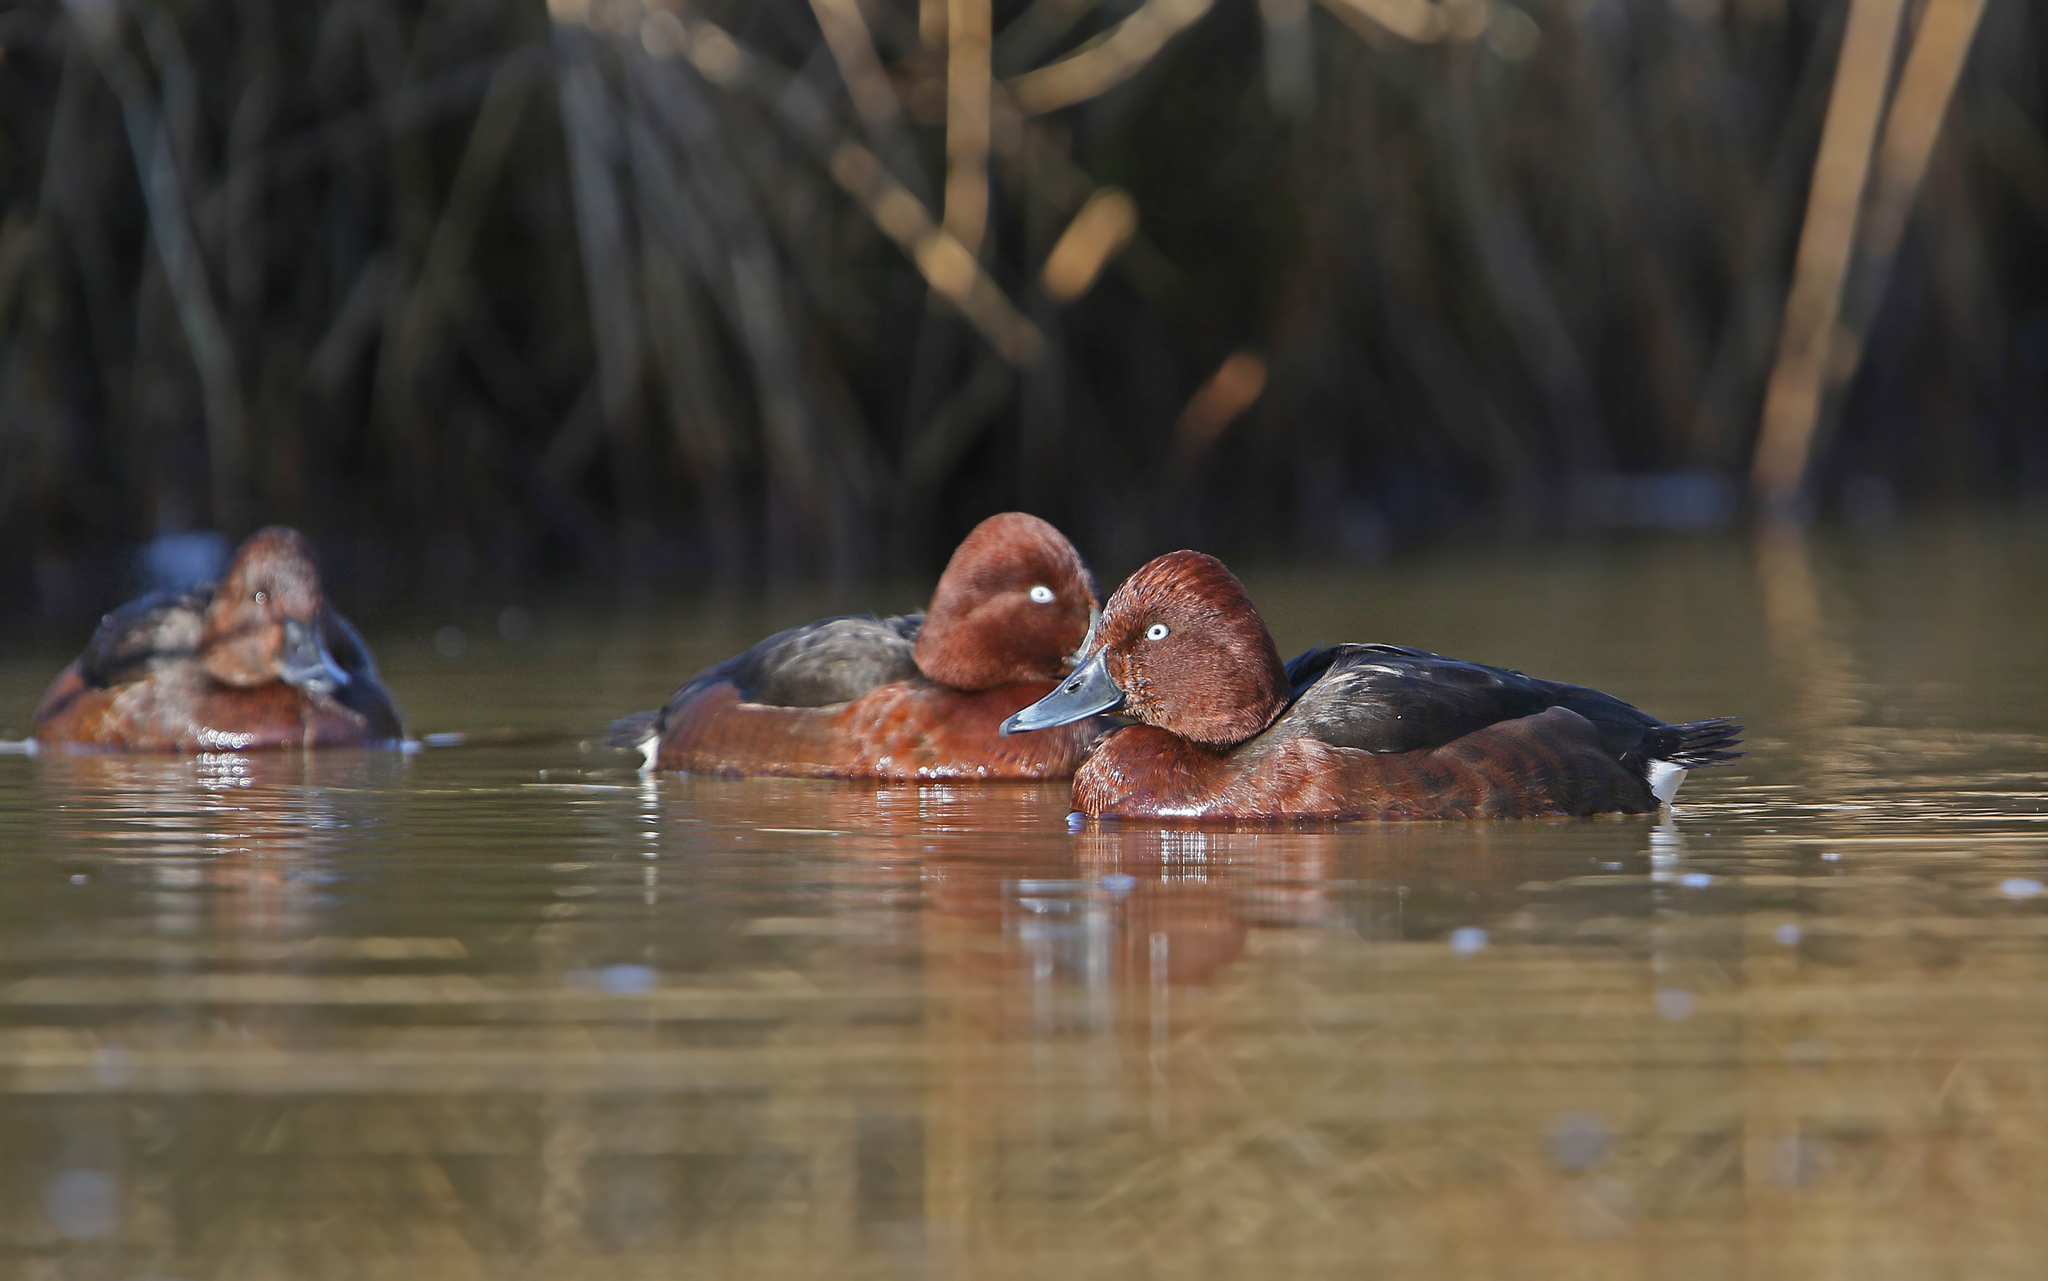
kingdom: Animalia
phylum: Chordata
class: Aves
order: Anseriformes
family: Anatidae
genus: Aythya
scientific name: Aythya nyroca
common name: Ferruginous duck
